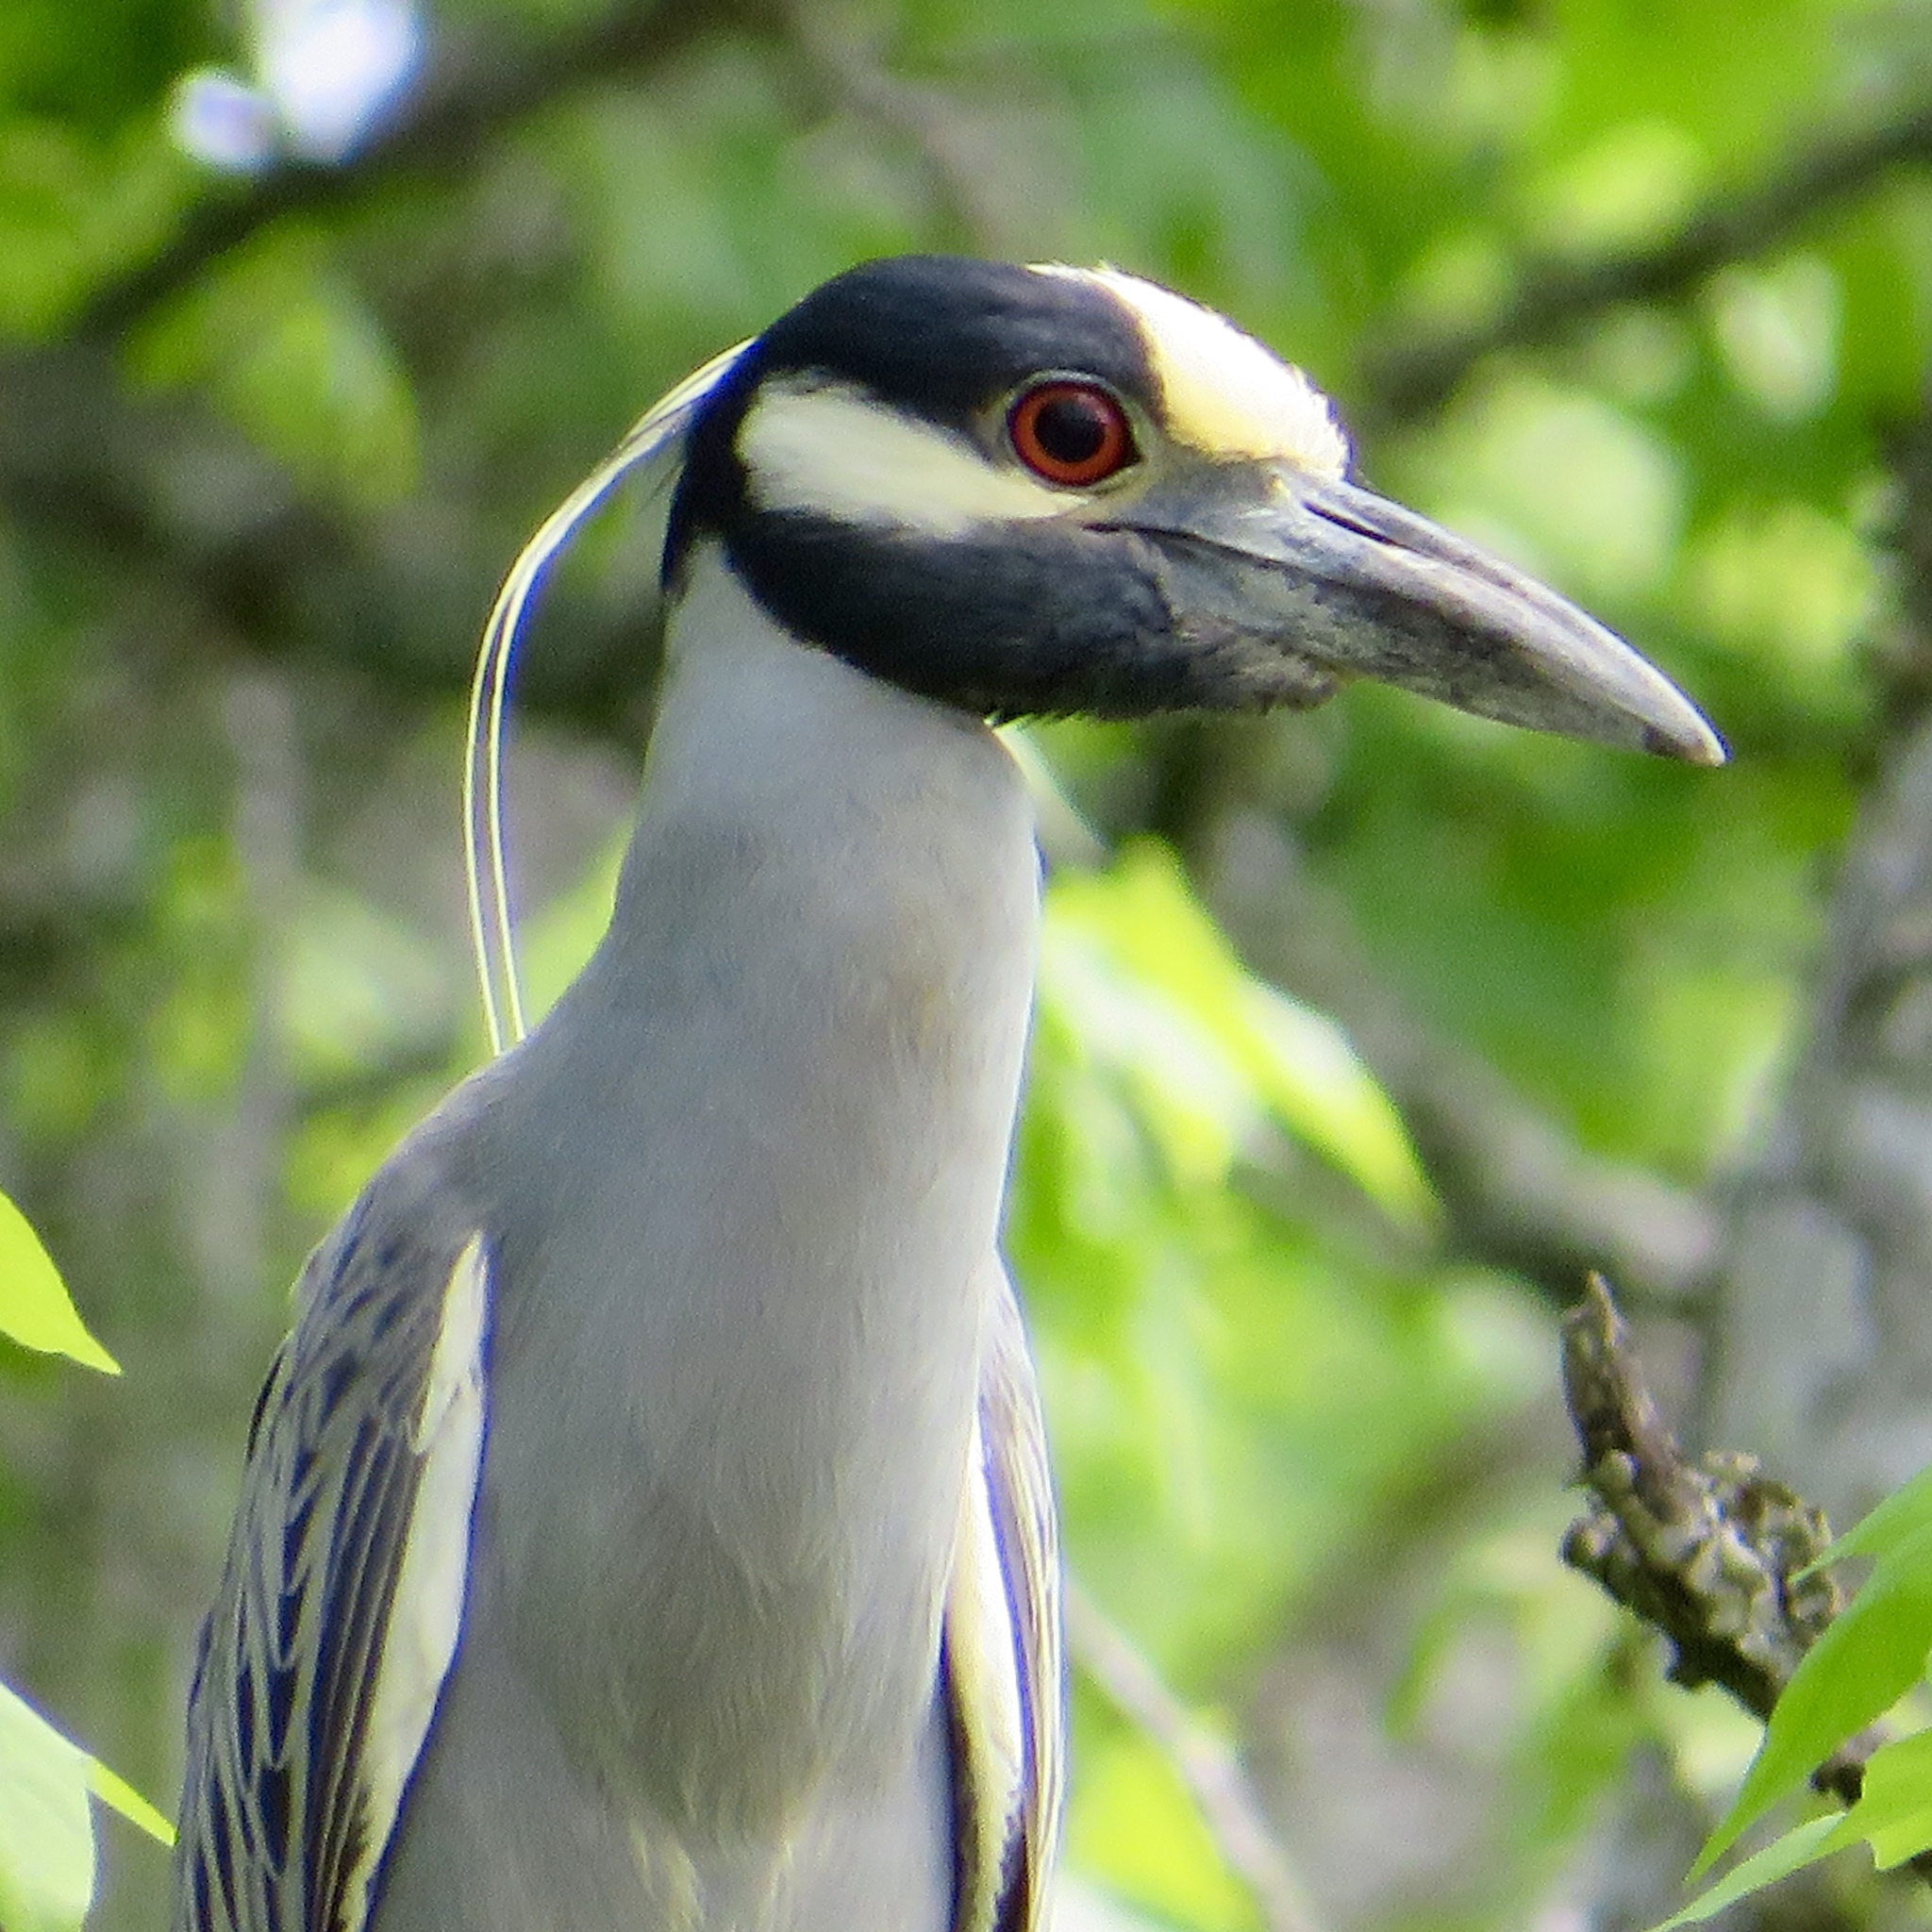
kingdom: Animalia
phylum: Chordata
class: Aves
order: Pelecaniformes
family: Ardeidae
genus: Nyctanassa
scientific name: Nyctanassa violacea
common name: Yellow-crowned night heron
